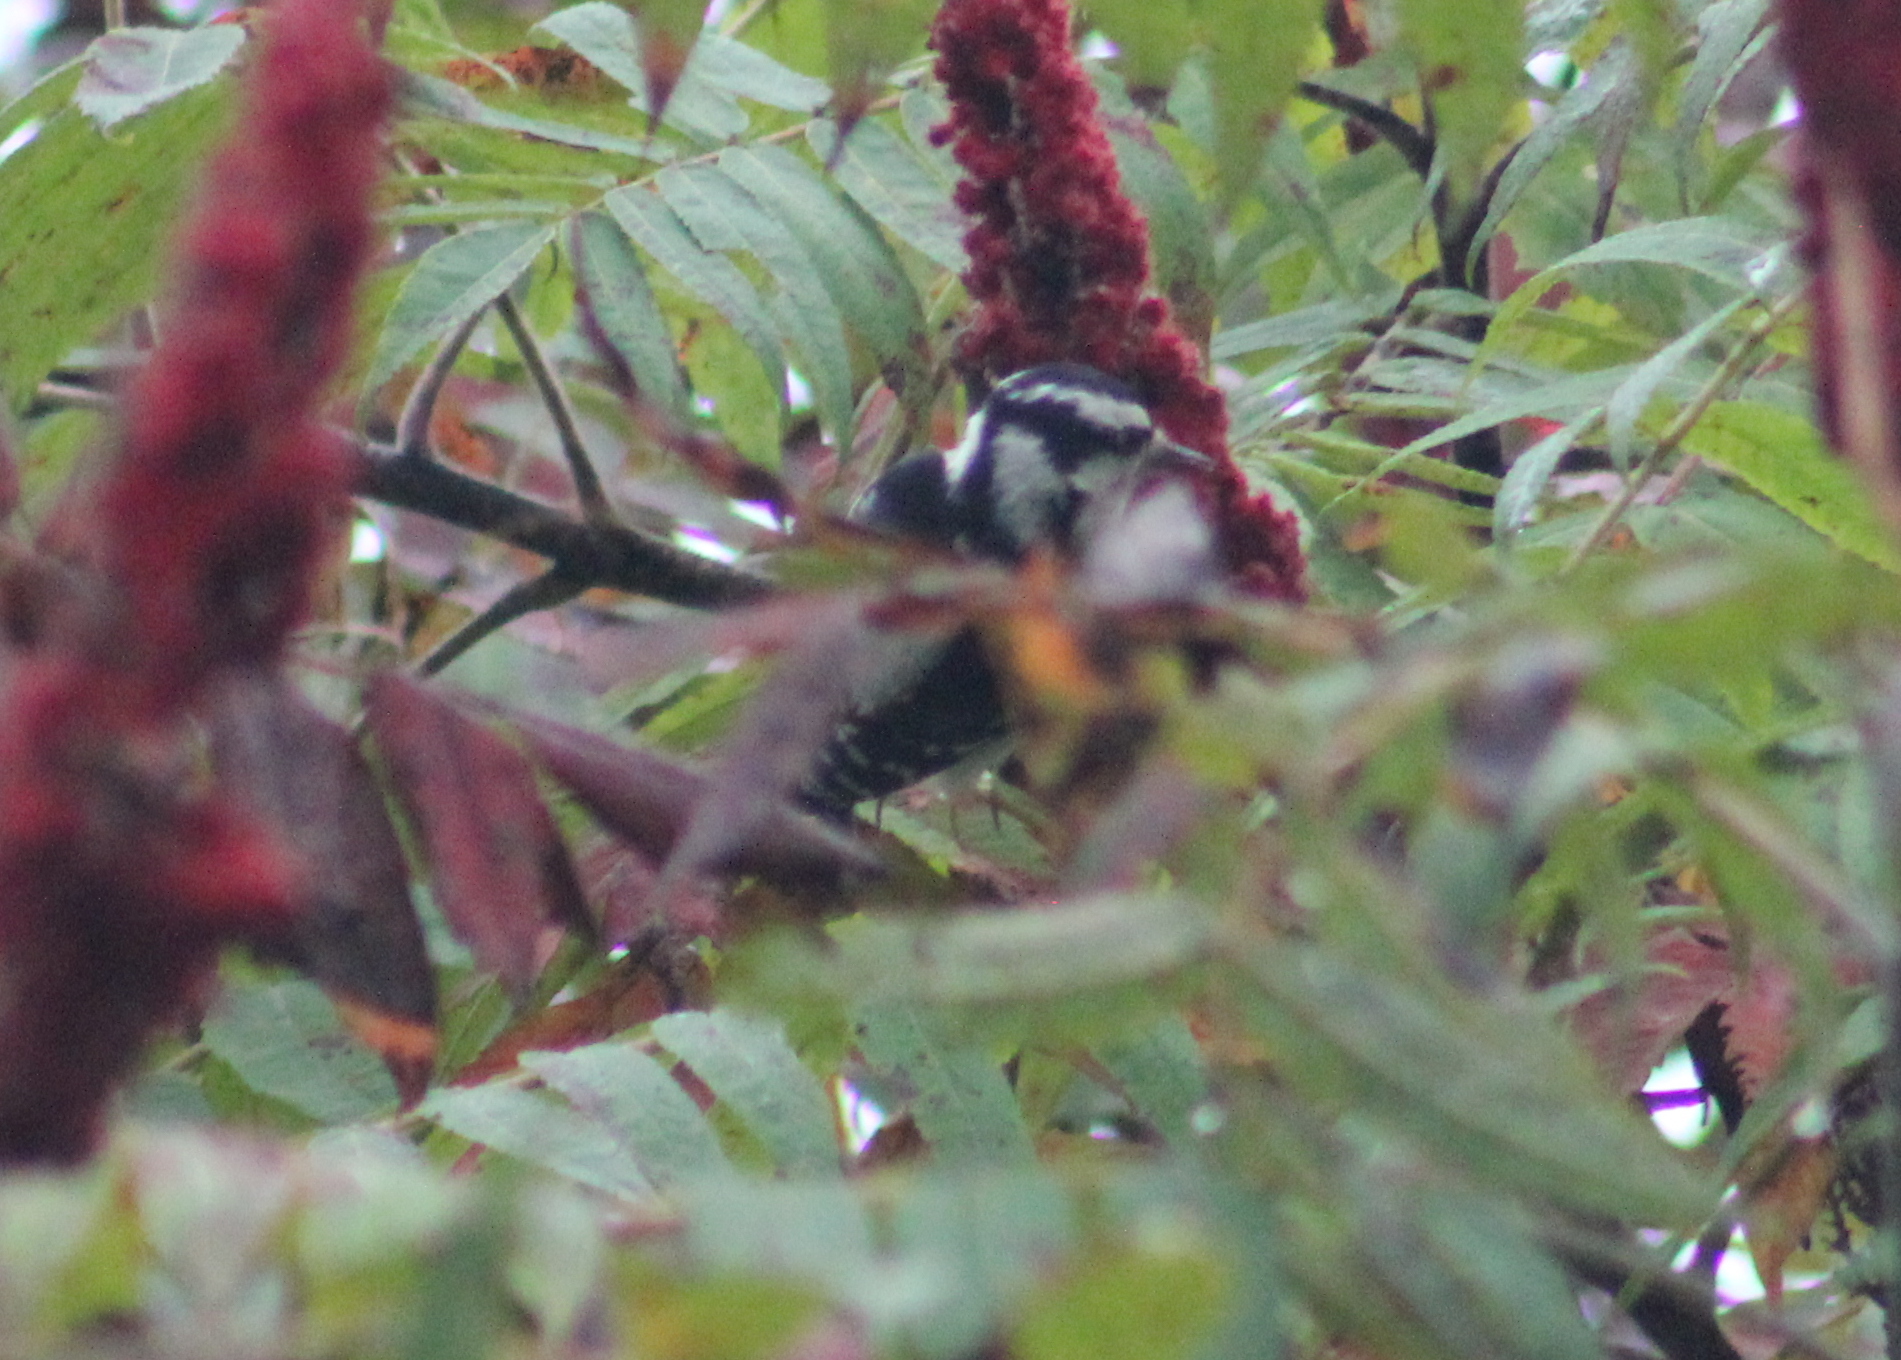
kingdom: Animalia
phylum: Chordata
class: Aves
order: Piciformes
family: Picidae
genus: Dryobates
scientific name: Dryobates pubescens
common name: Downy woodpecker
